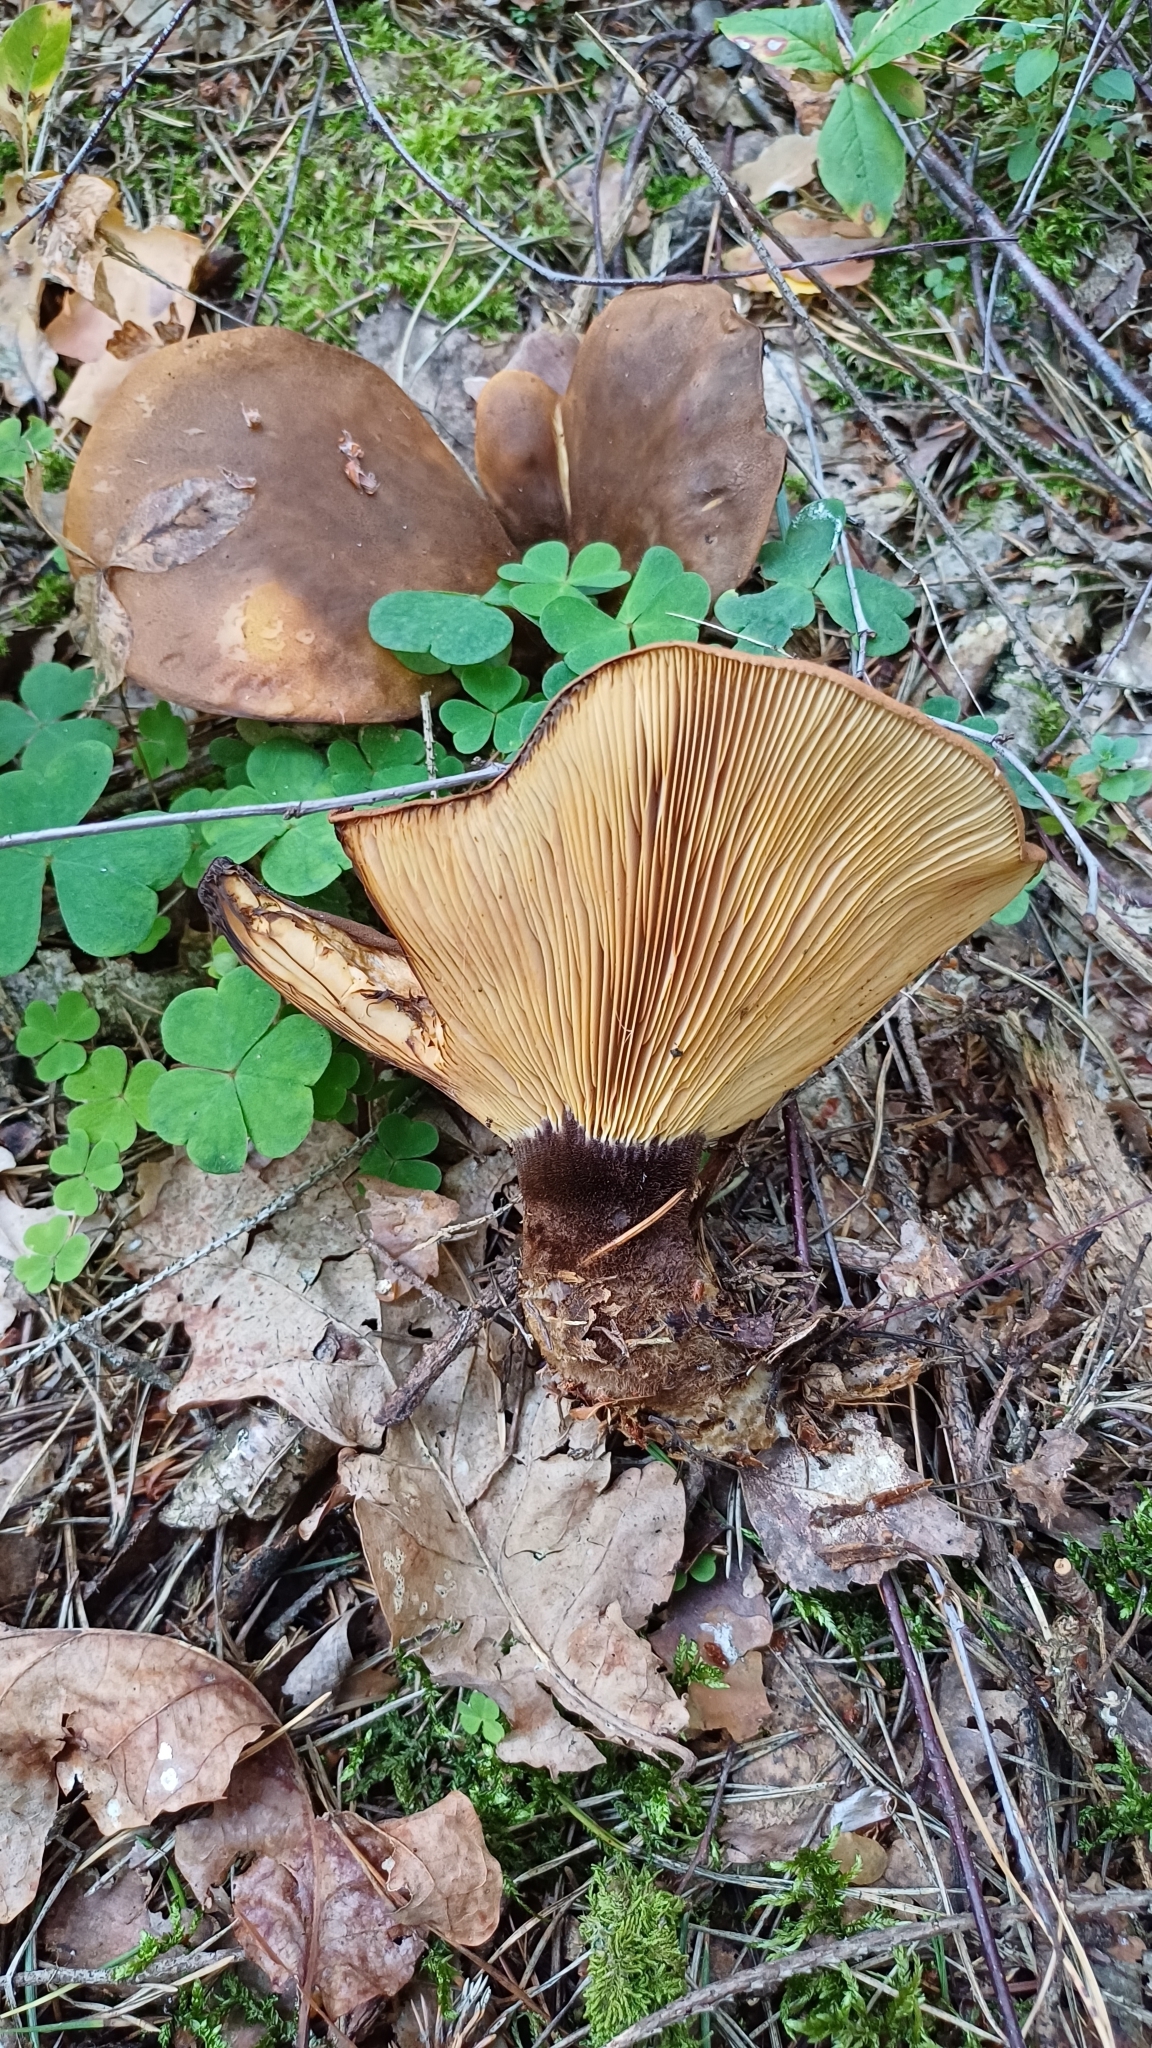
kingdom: Fungi
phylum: Basidiomycota
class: Agaricomycetes
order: Boletales
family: Tapinellaceae
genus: Tapinella
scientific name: Tapinella atrotomentosa
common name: Velvet rollrim
